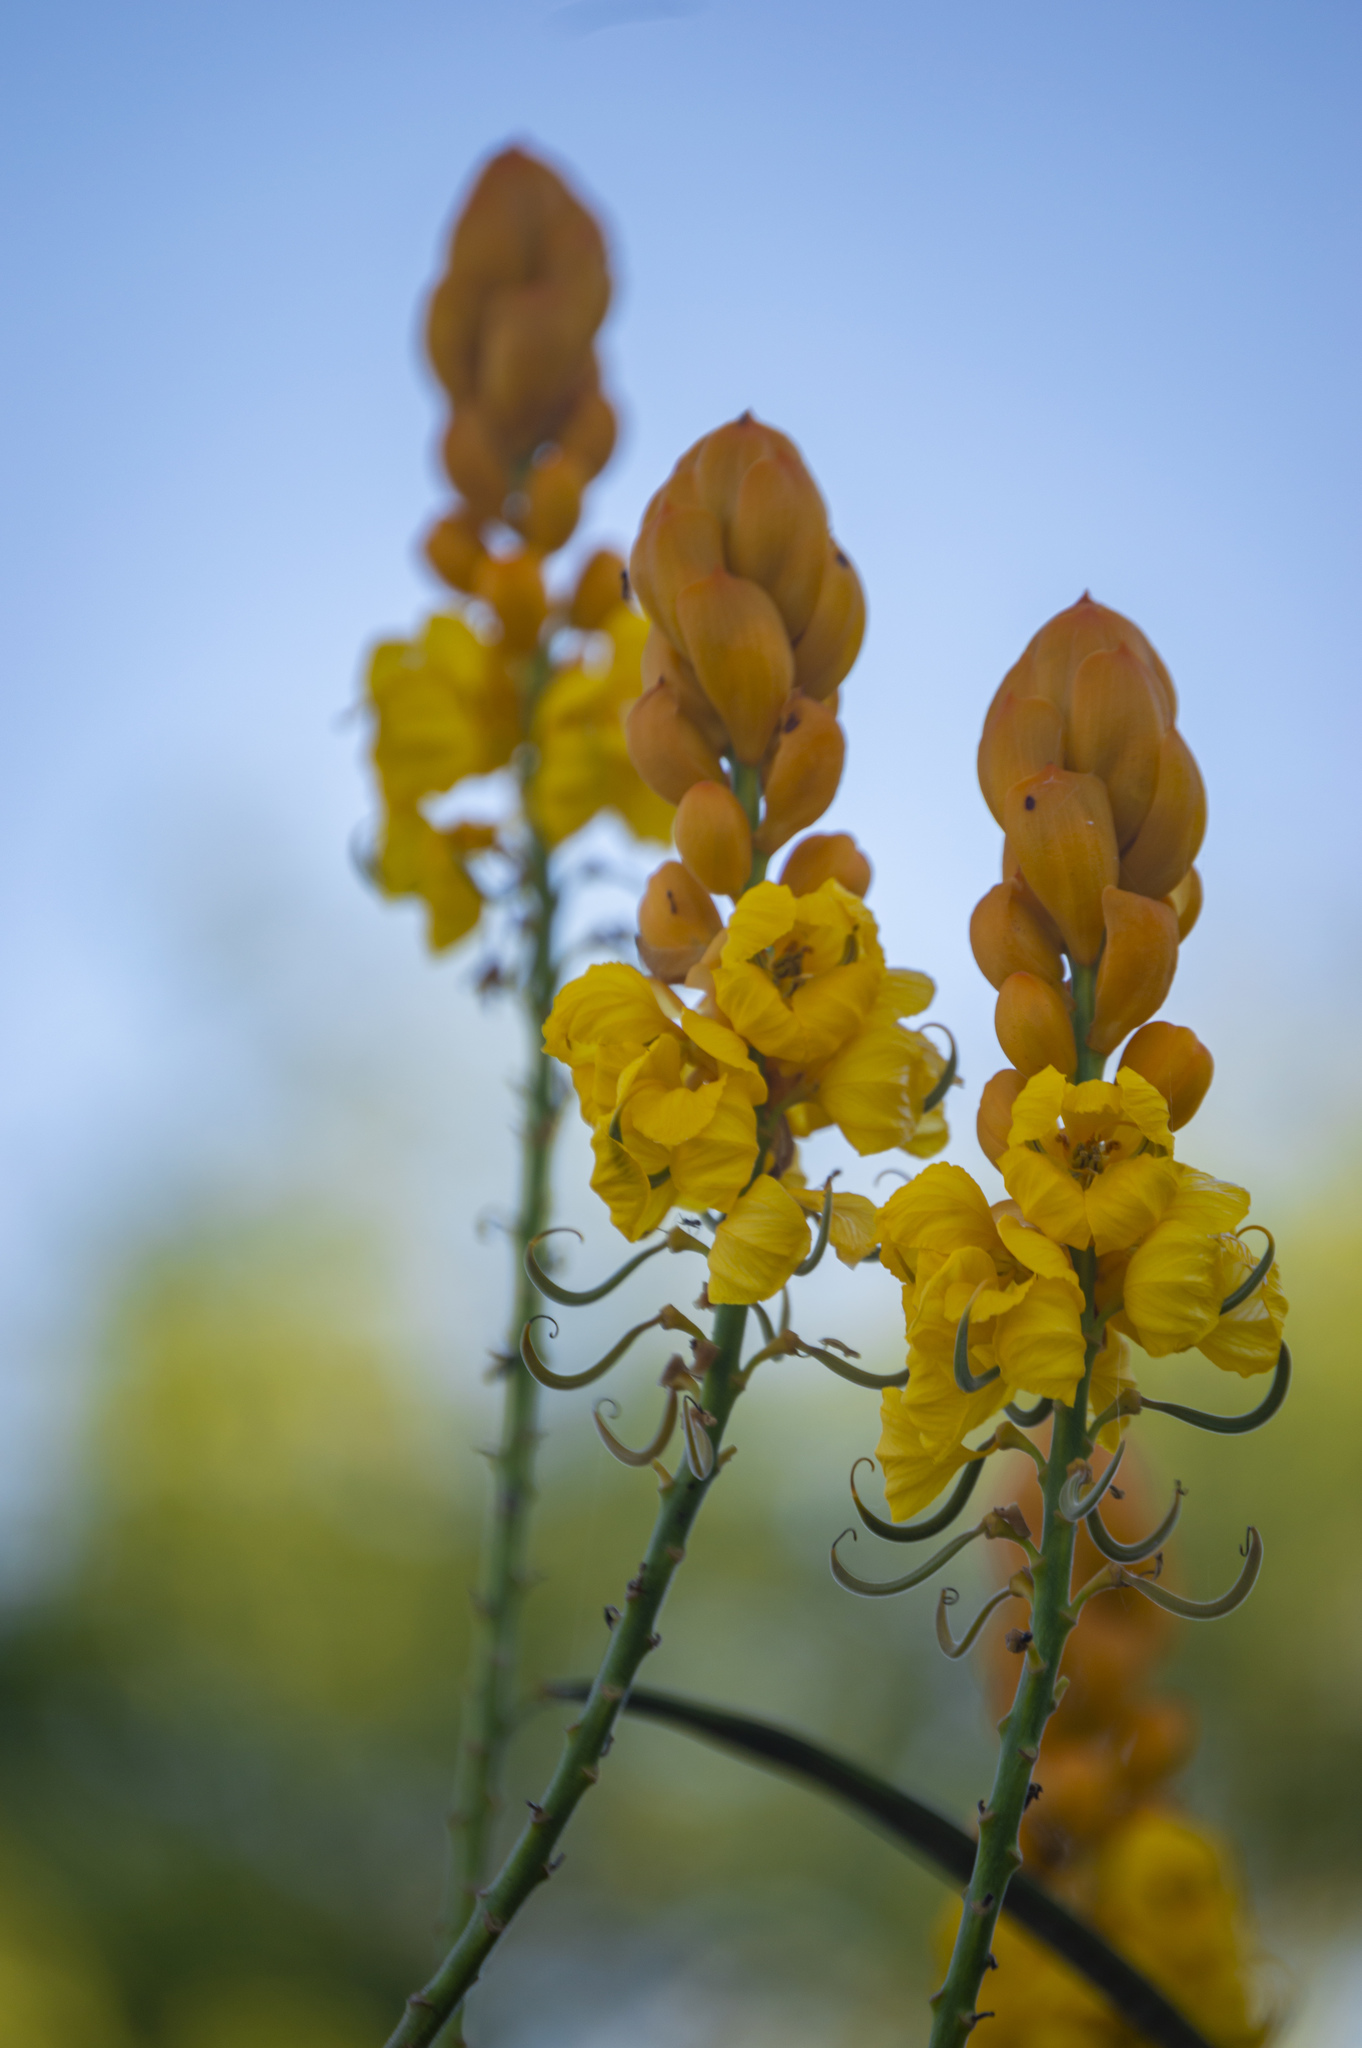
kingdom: Plantae
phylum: Tracheophyta
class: Magnoliopsida
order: Fabales
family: Fabaceae
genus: Senna
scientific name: Senna alata
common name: Emperor's candlesticks
